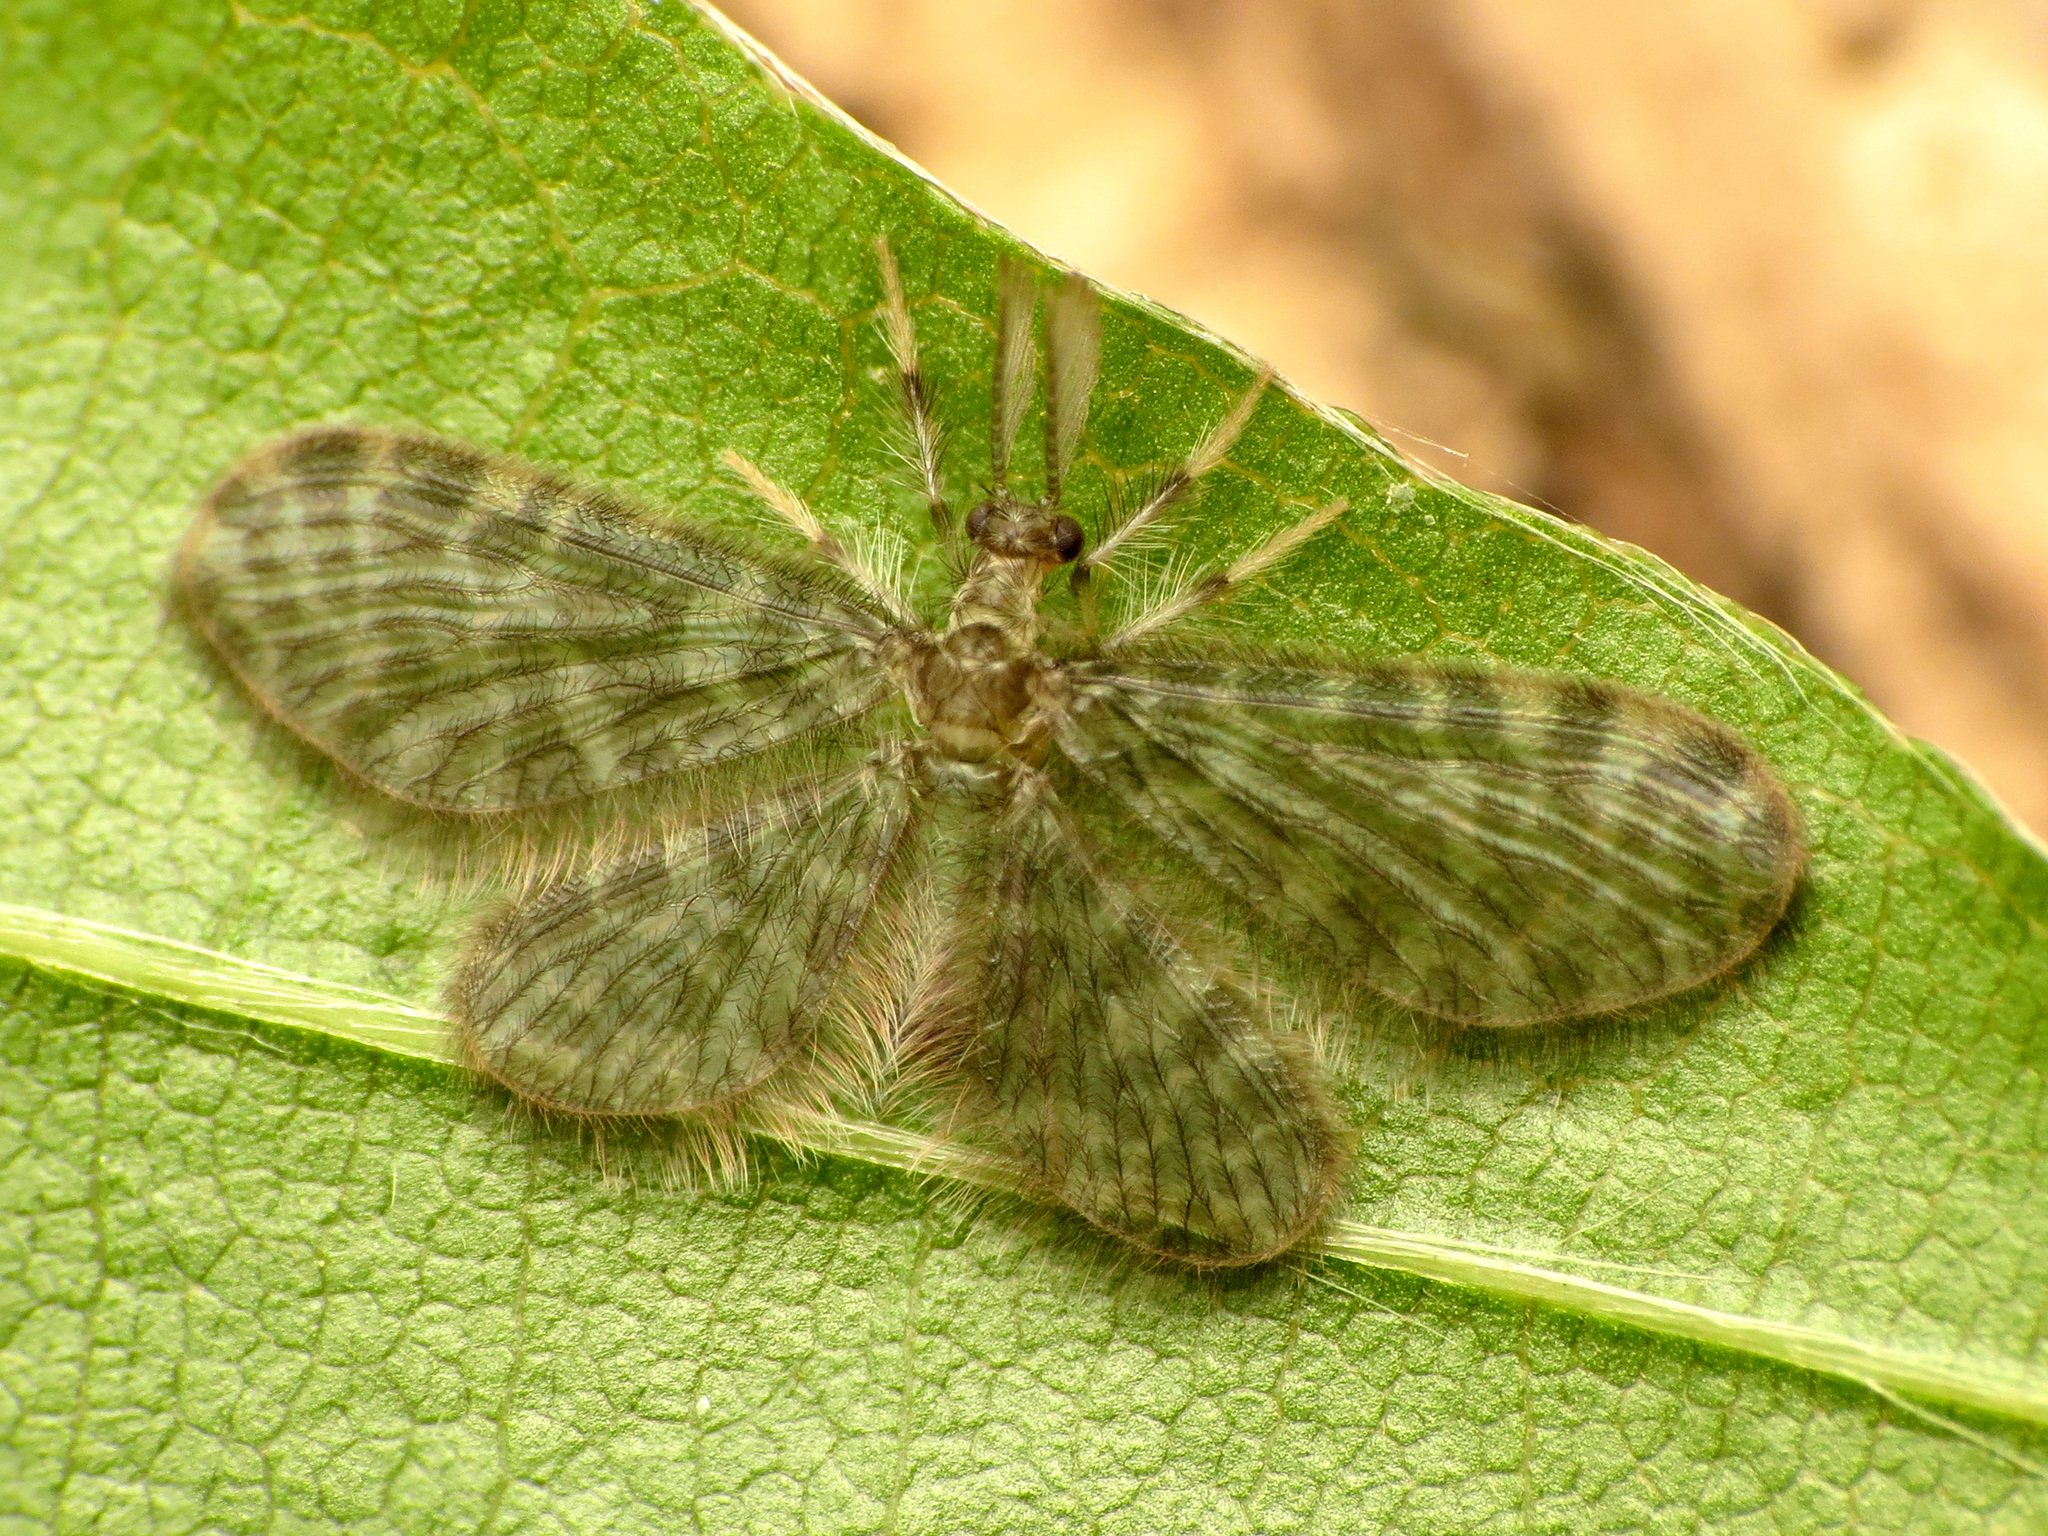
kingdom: Animalia
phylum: Arthropoda
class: Insecta
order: Neuroptera
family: Dilaridae
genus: Nallachius
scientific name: Nallachius americanus
